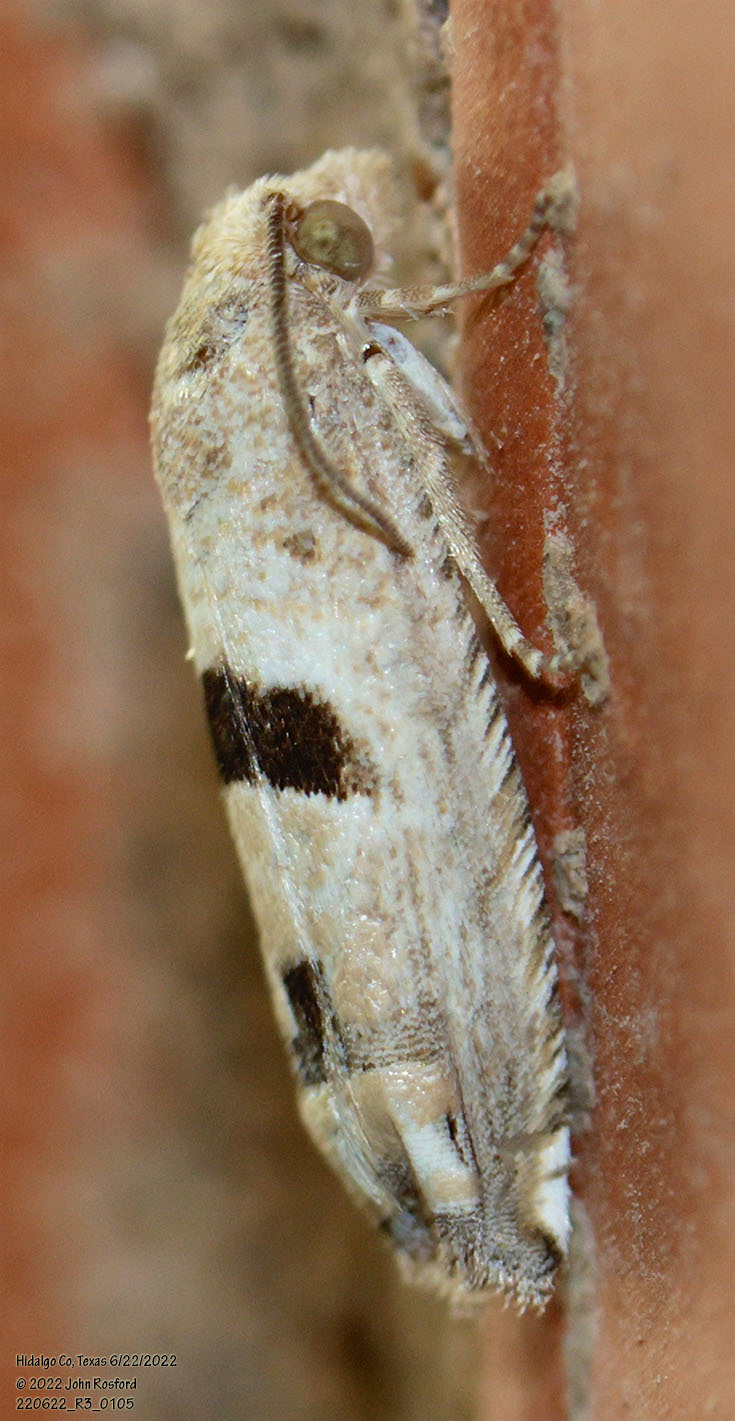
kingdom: Animalia
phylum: Arthropoda
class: Insecta
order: Lepidoptera
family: Tortricidae
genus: Suleima
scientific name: Suleima helianthana
